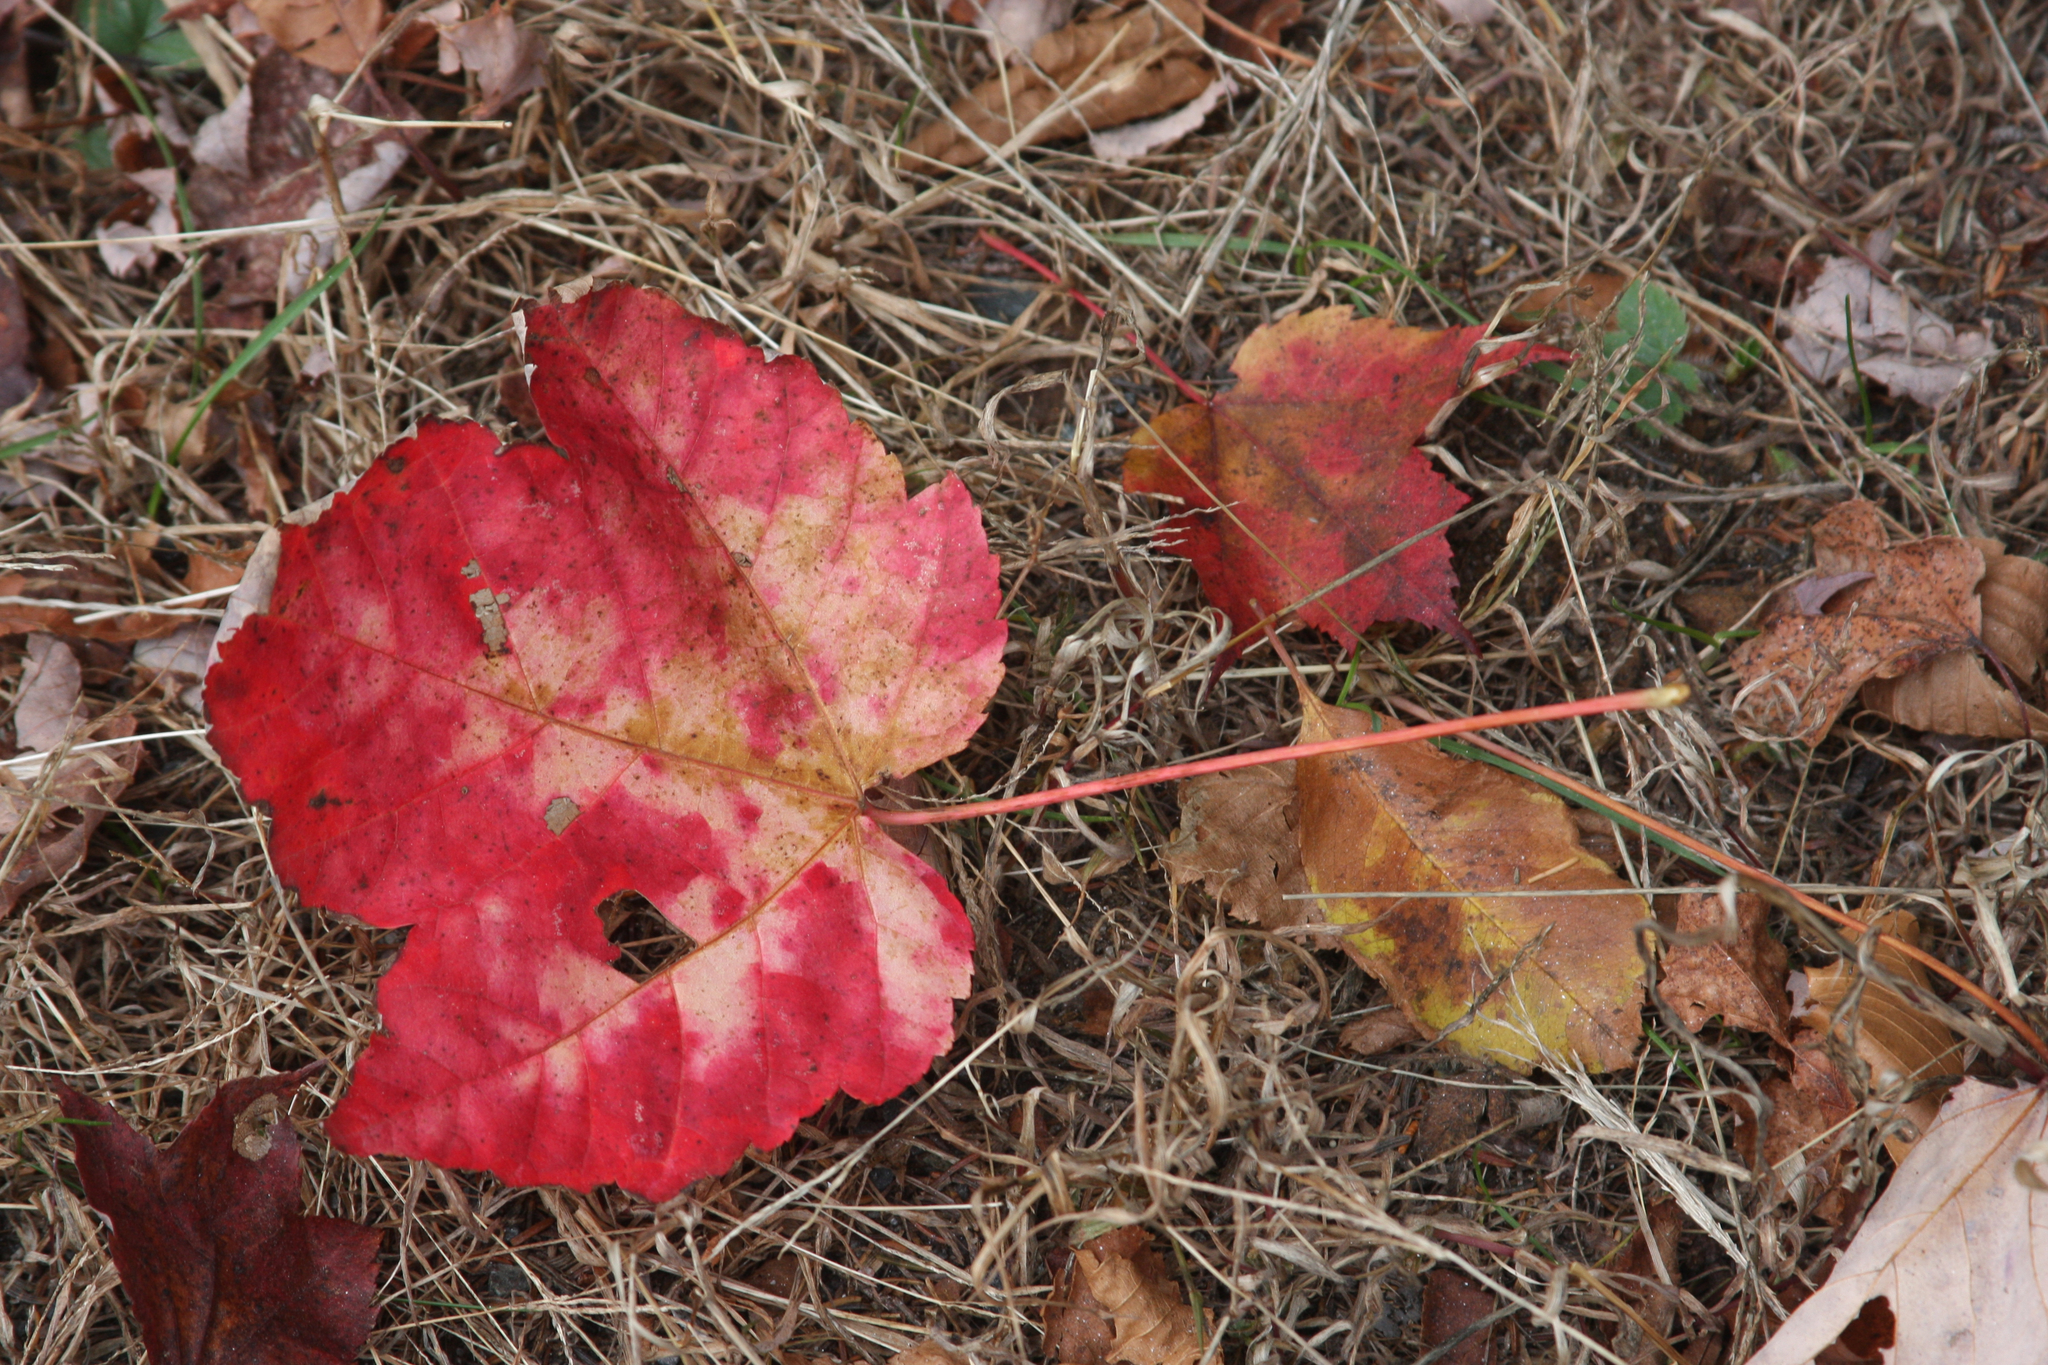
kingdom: Plantae
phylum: Tracheophyta
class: Magnoliopsida
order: Sapindales
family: Sapindaceae
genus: Acer
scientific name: Acer rubrum
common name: Red maple
